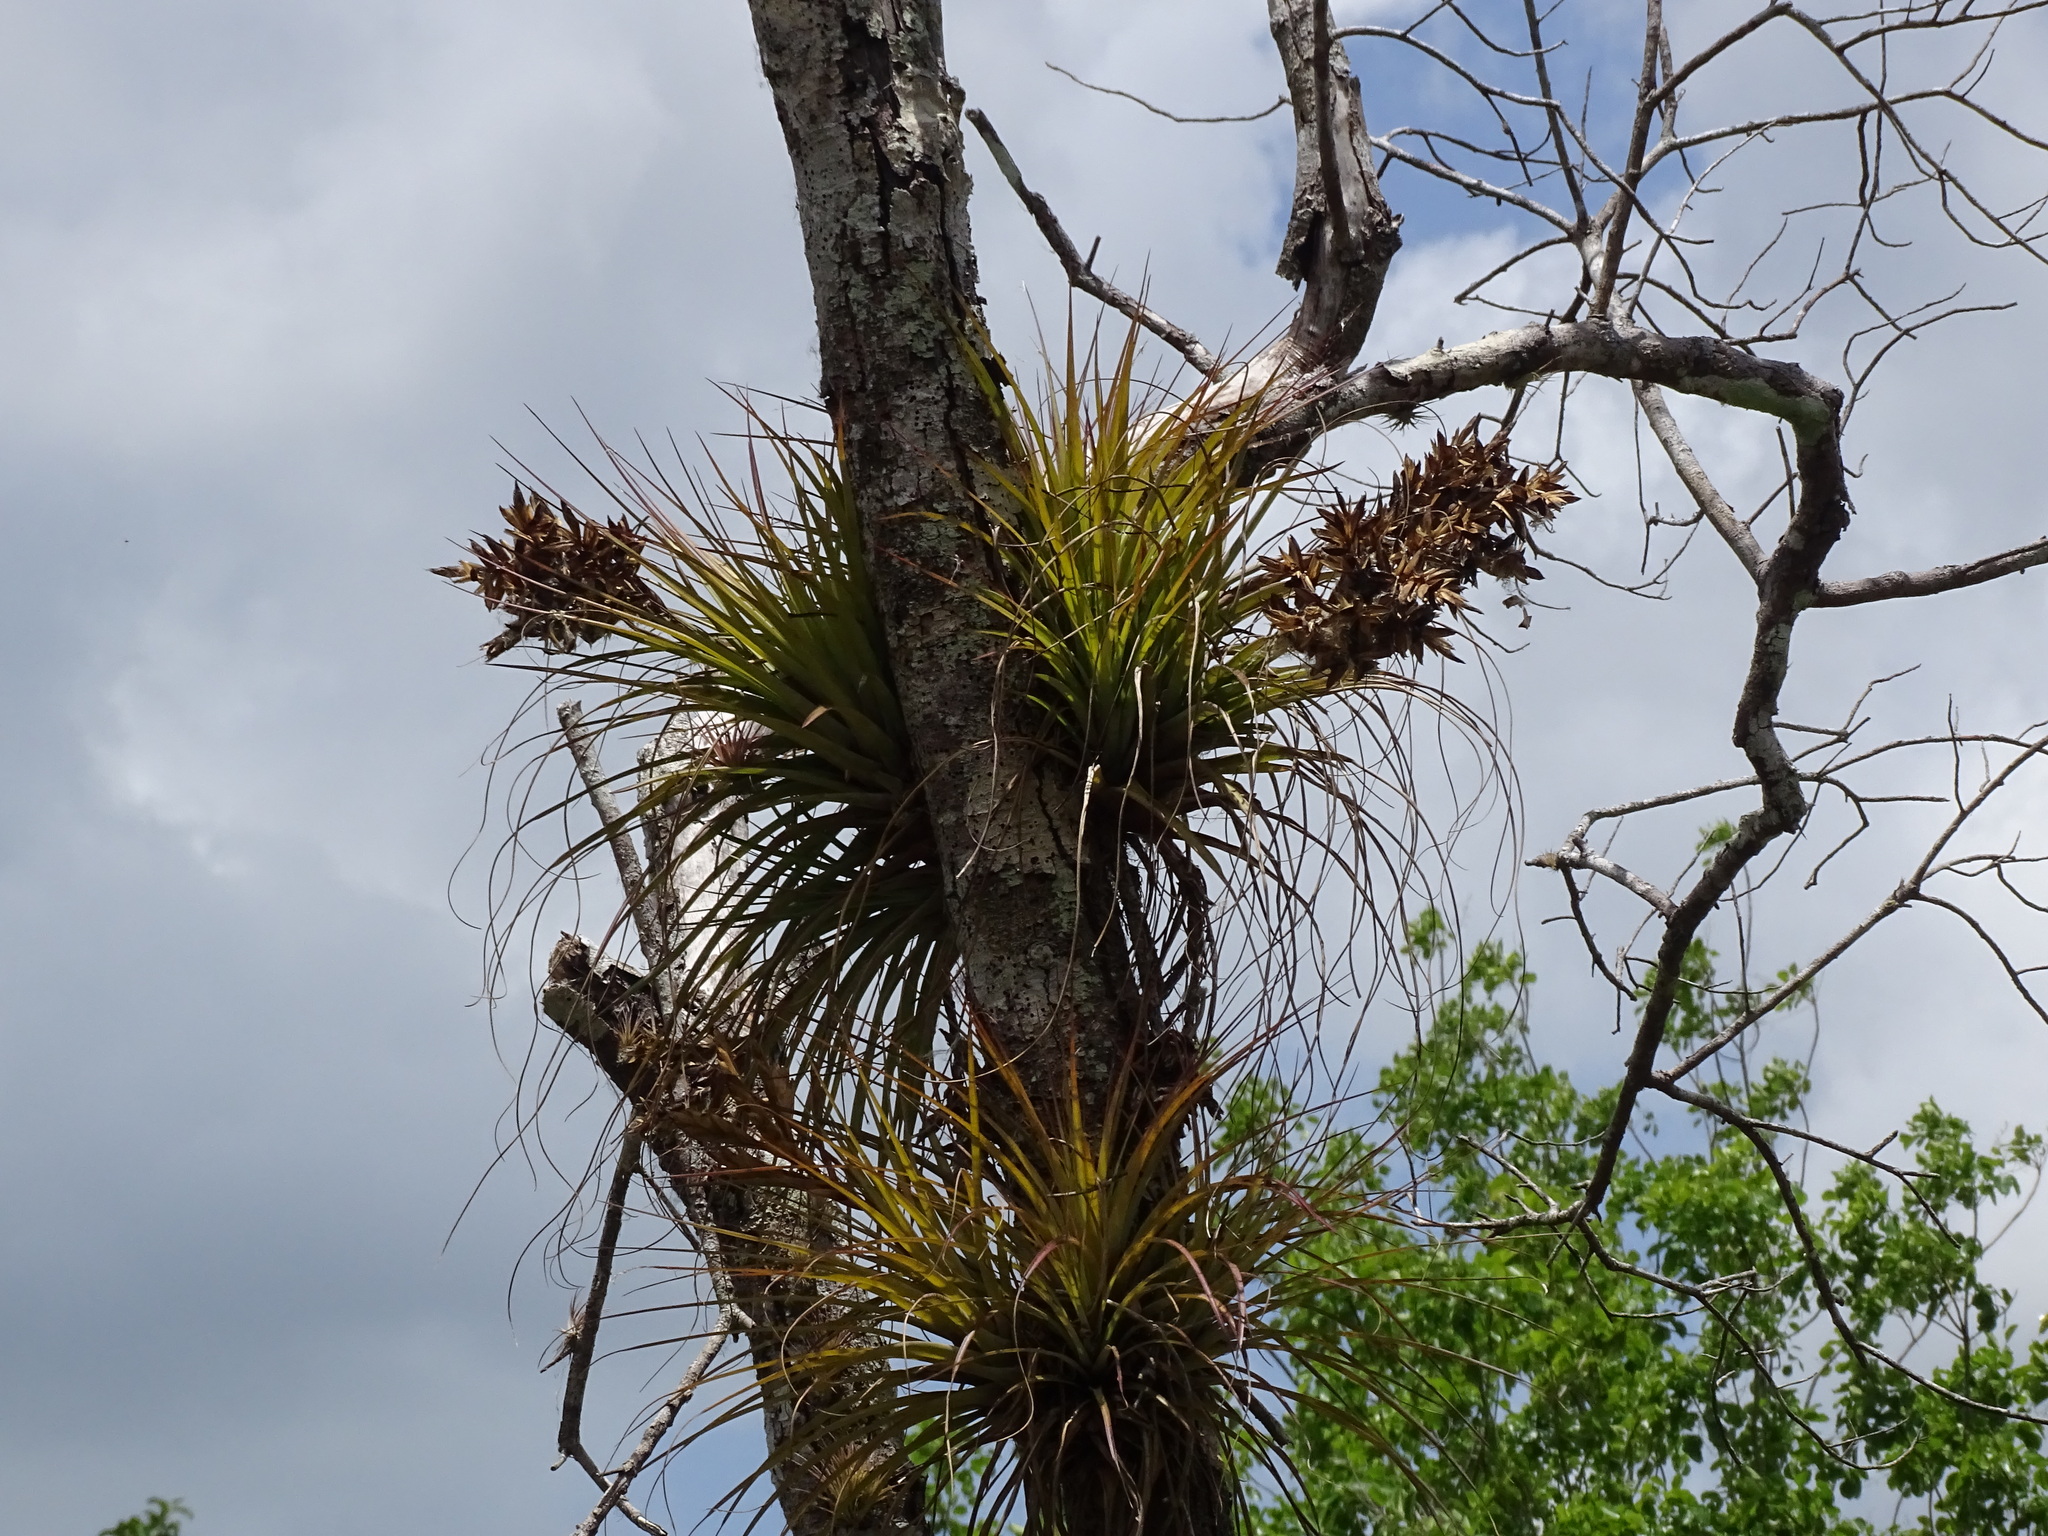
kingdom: Plantae
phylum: Tracheophyta
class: Liliopsida
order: Poales
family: Bromeliaceae
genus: Tillandsia
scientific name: Tillandsia fasciculata
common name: Giant airplant
